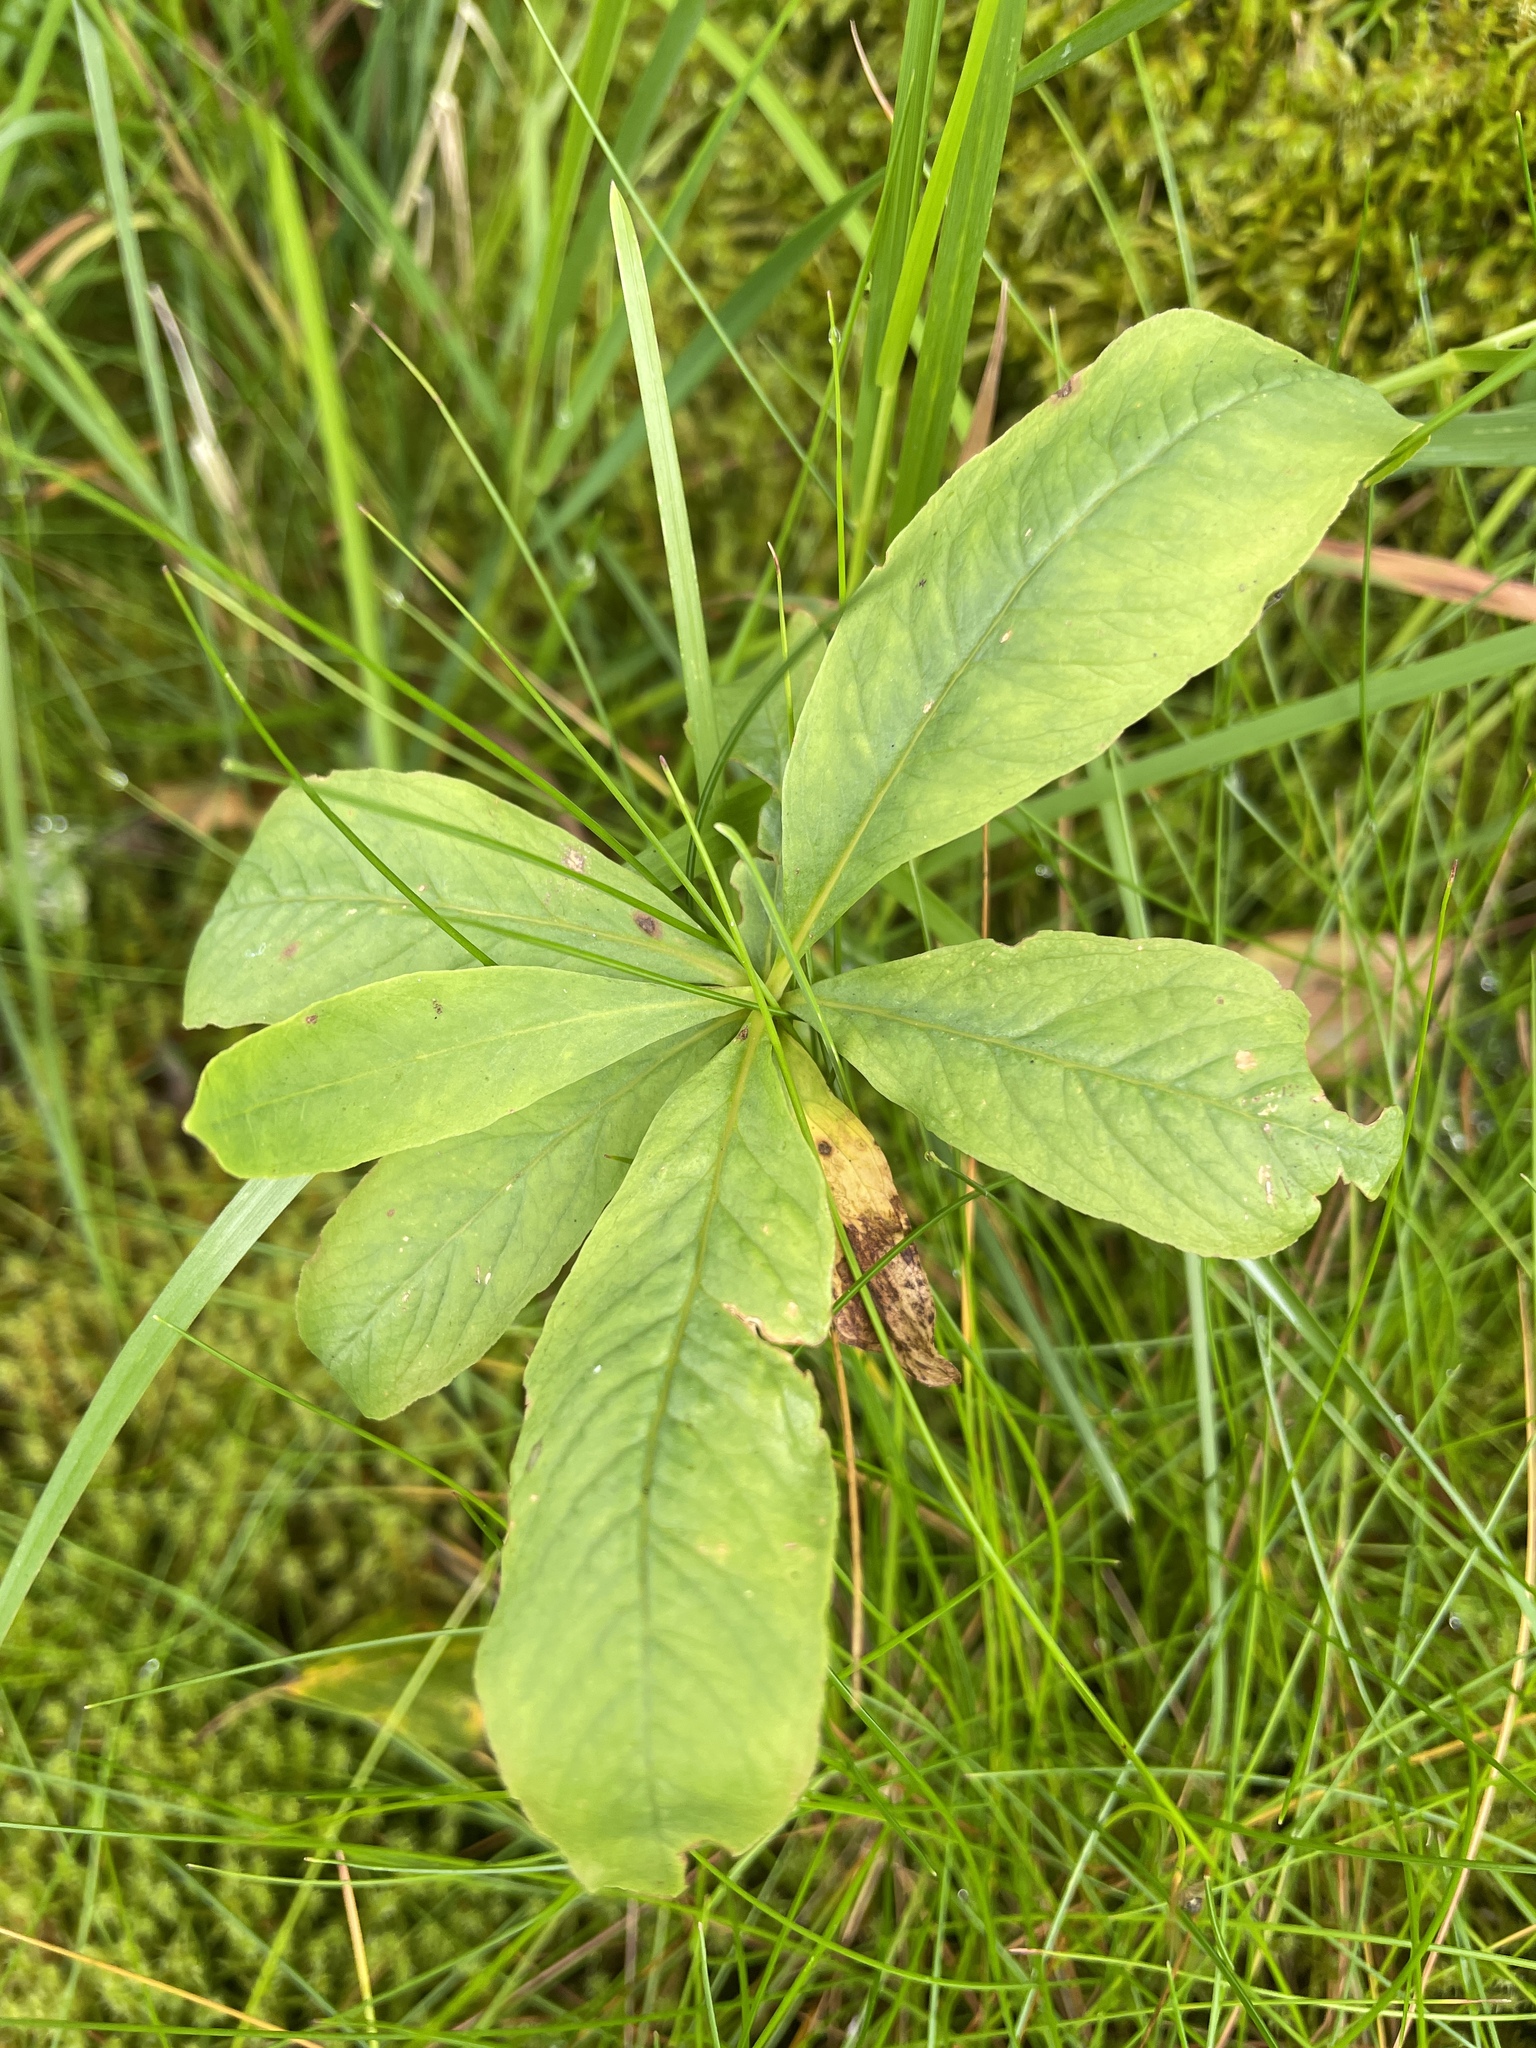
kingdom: Plantae
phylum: Tracheophyta
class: Magnoliopsida
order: Ericales
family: Primulaceae
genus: Lysimachia
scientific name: Lysimachia europaea
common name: Arctic starflower
